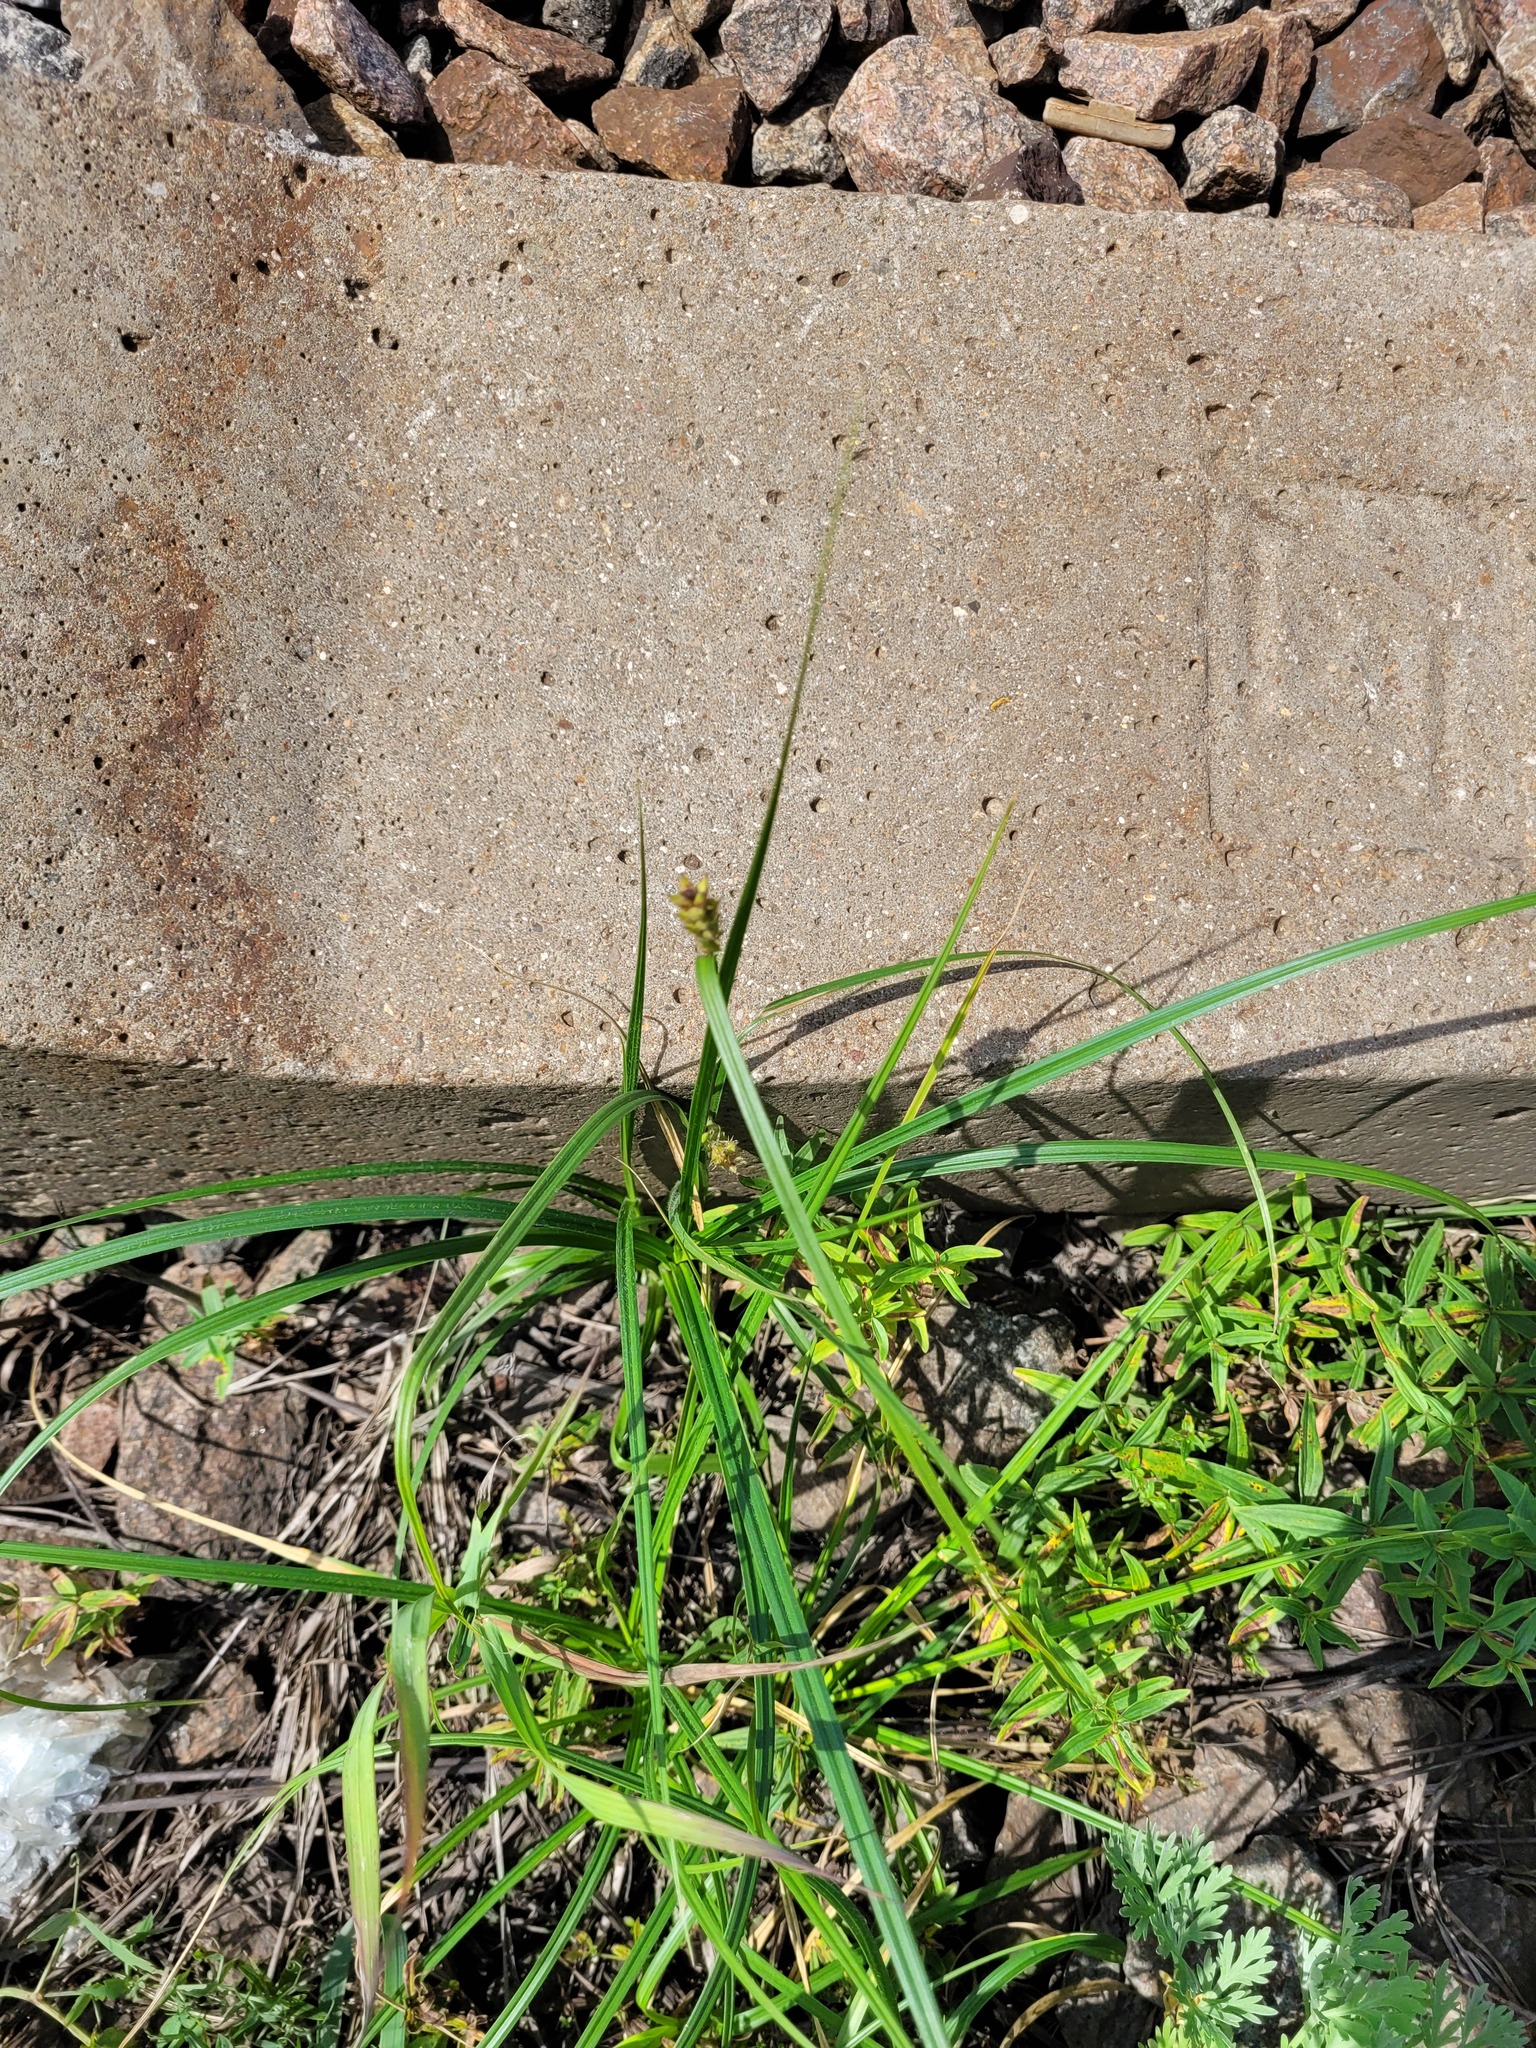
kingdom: Plantae
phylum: Tracheophyta
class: Liliopsida
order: Poales
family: Cyperaceae
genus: Carex
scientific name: Carex hirta
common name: Hairy sedge
